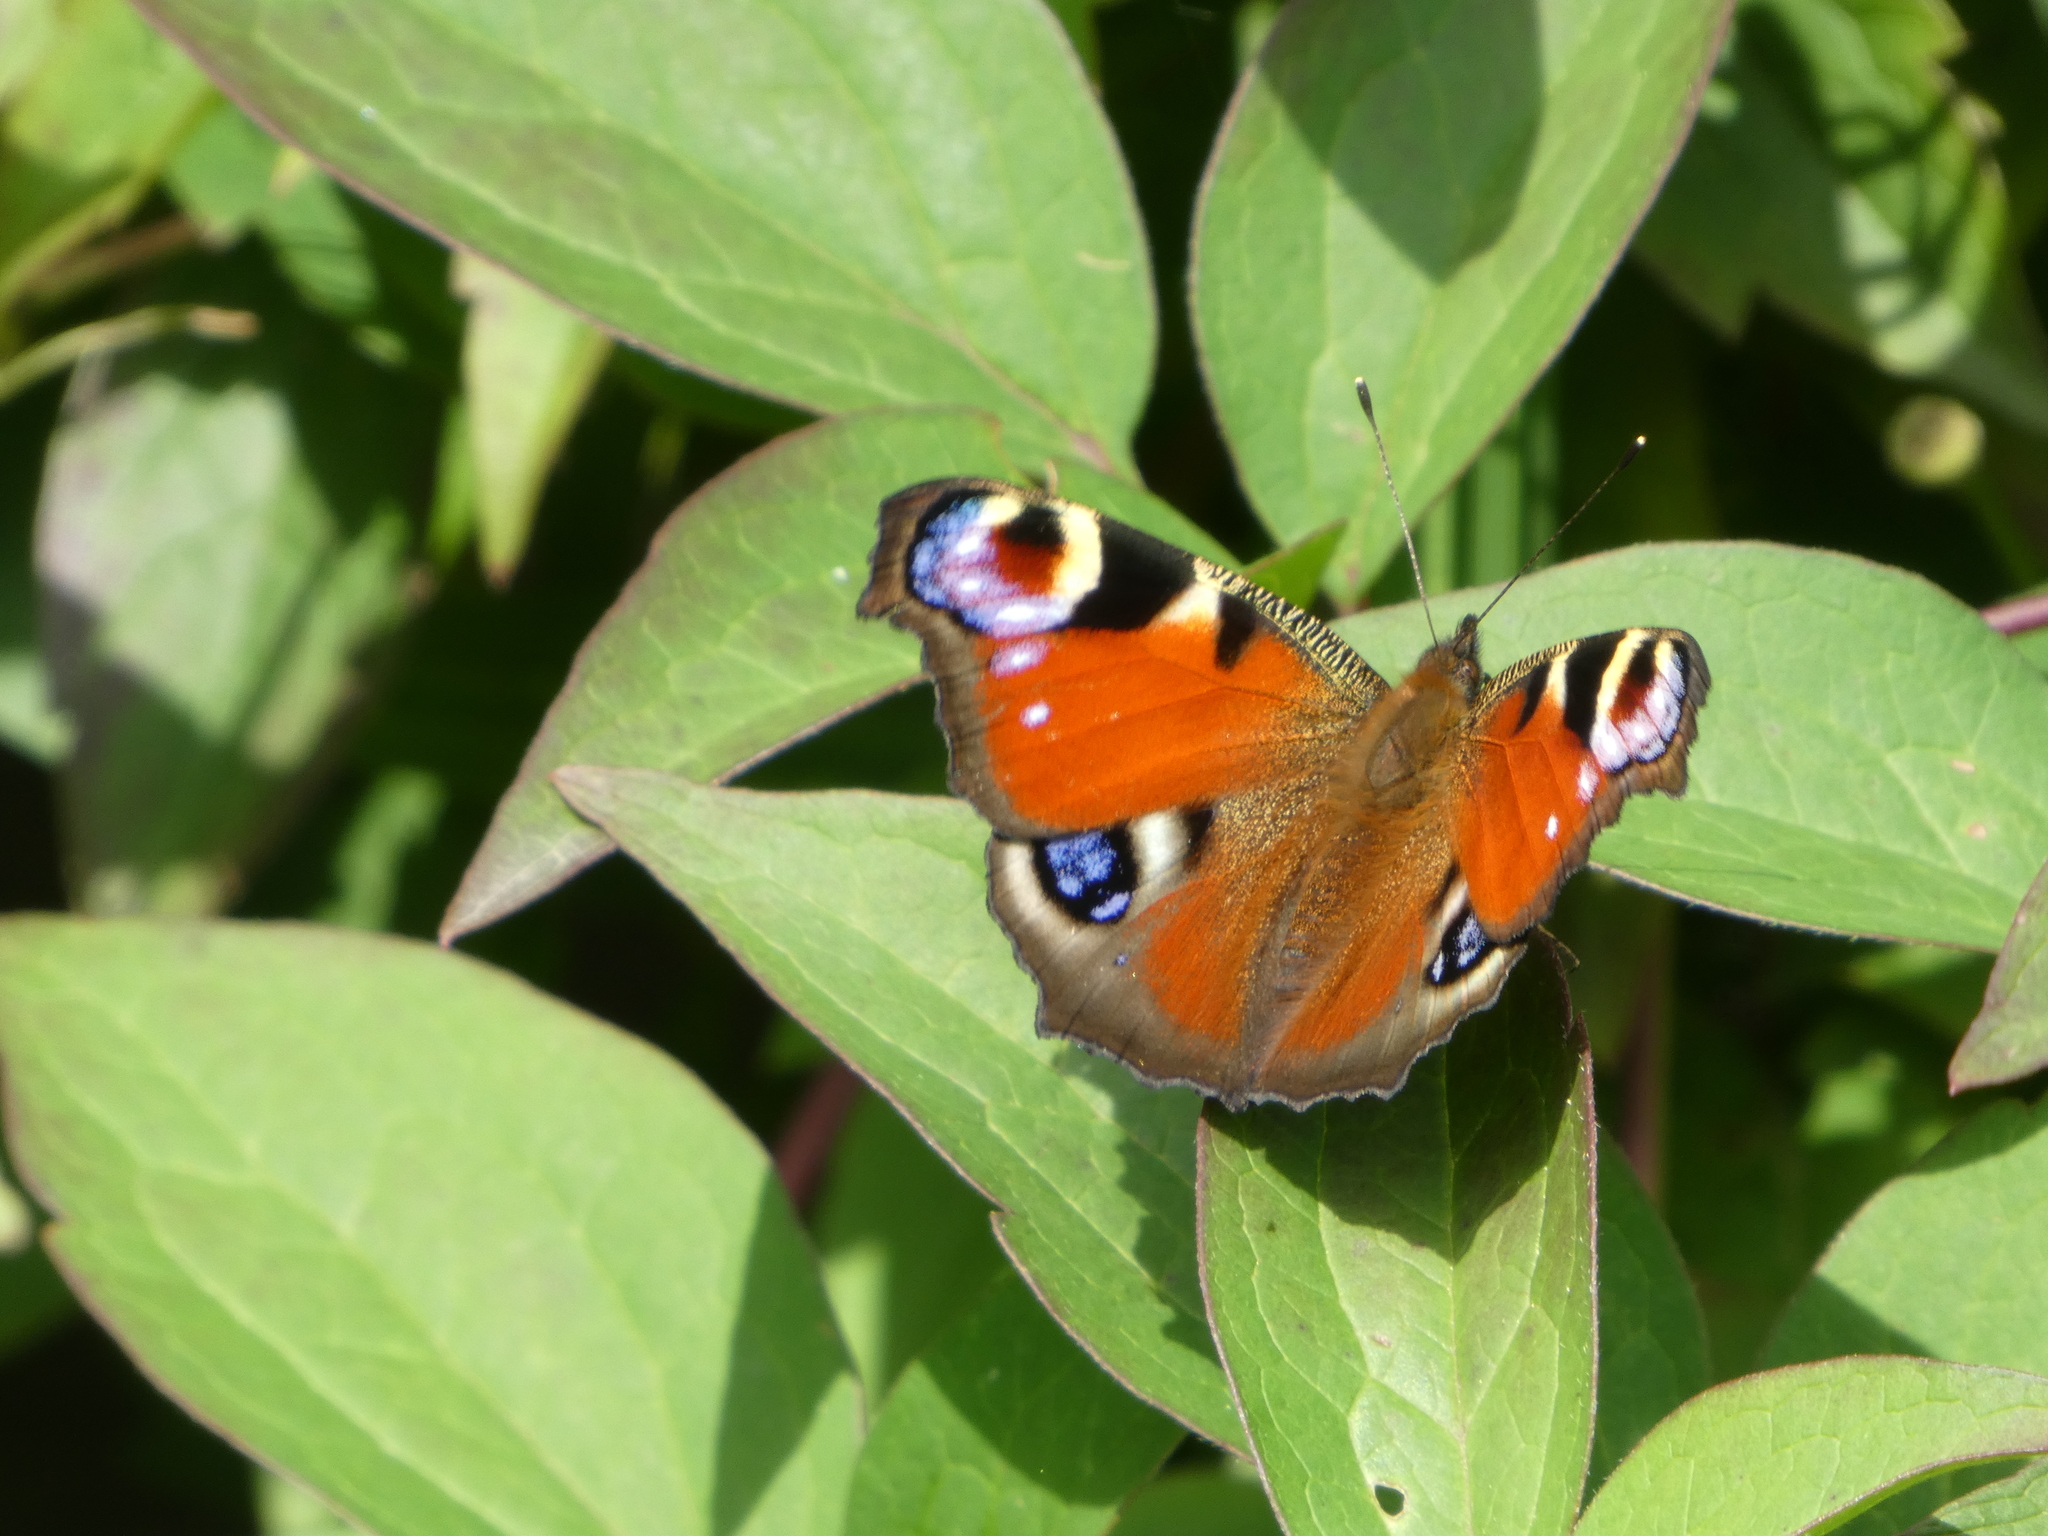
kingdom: Animalia
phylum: Arthropoda
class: Insecta
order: Lepidoptera
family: Nymphalidae
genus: Aglais
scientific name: Aglais io
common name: Peacock
